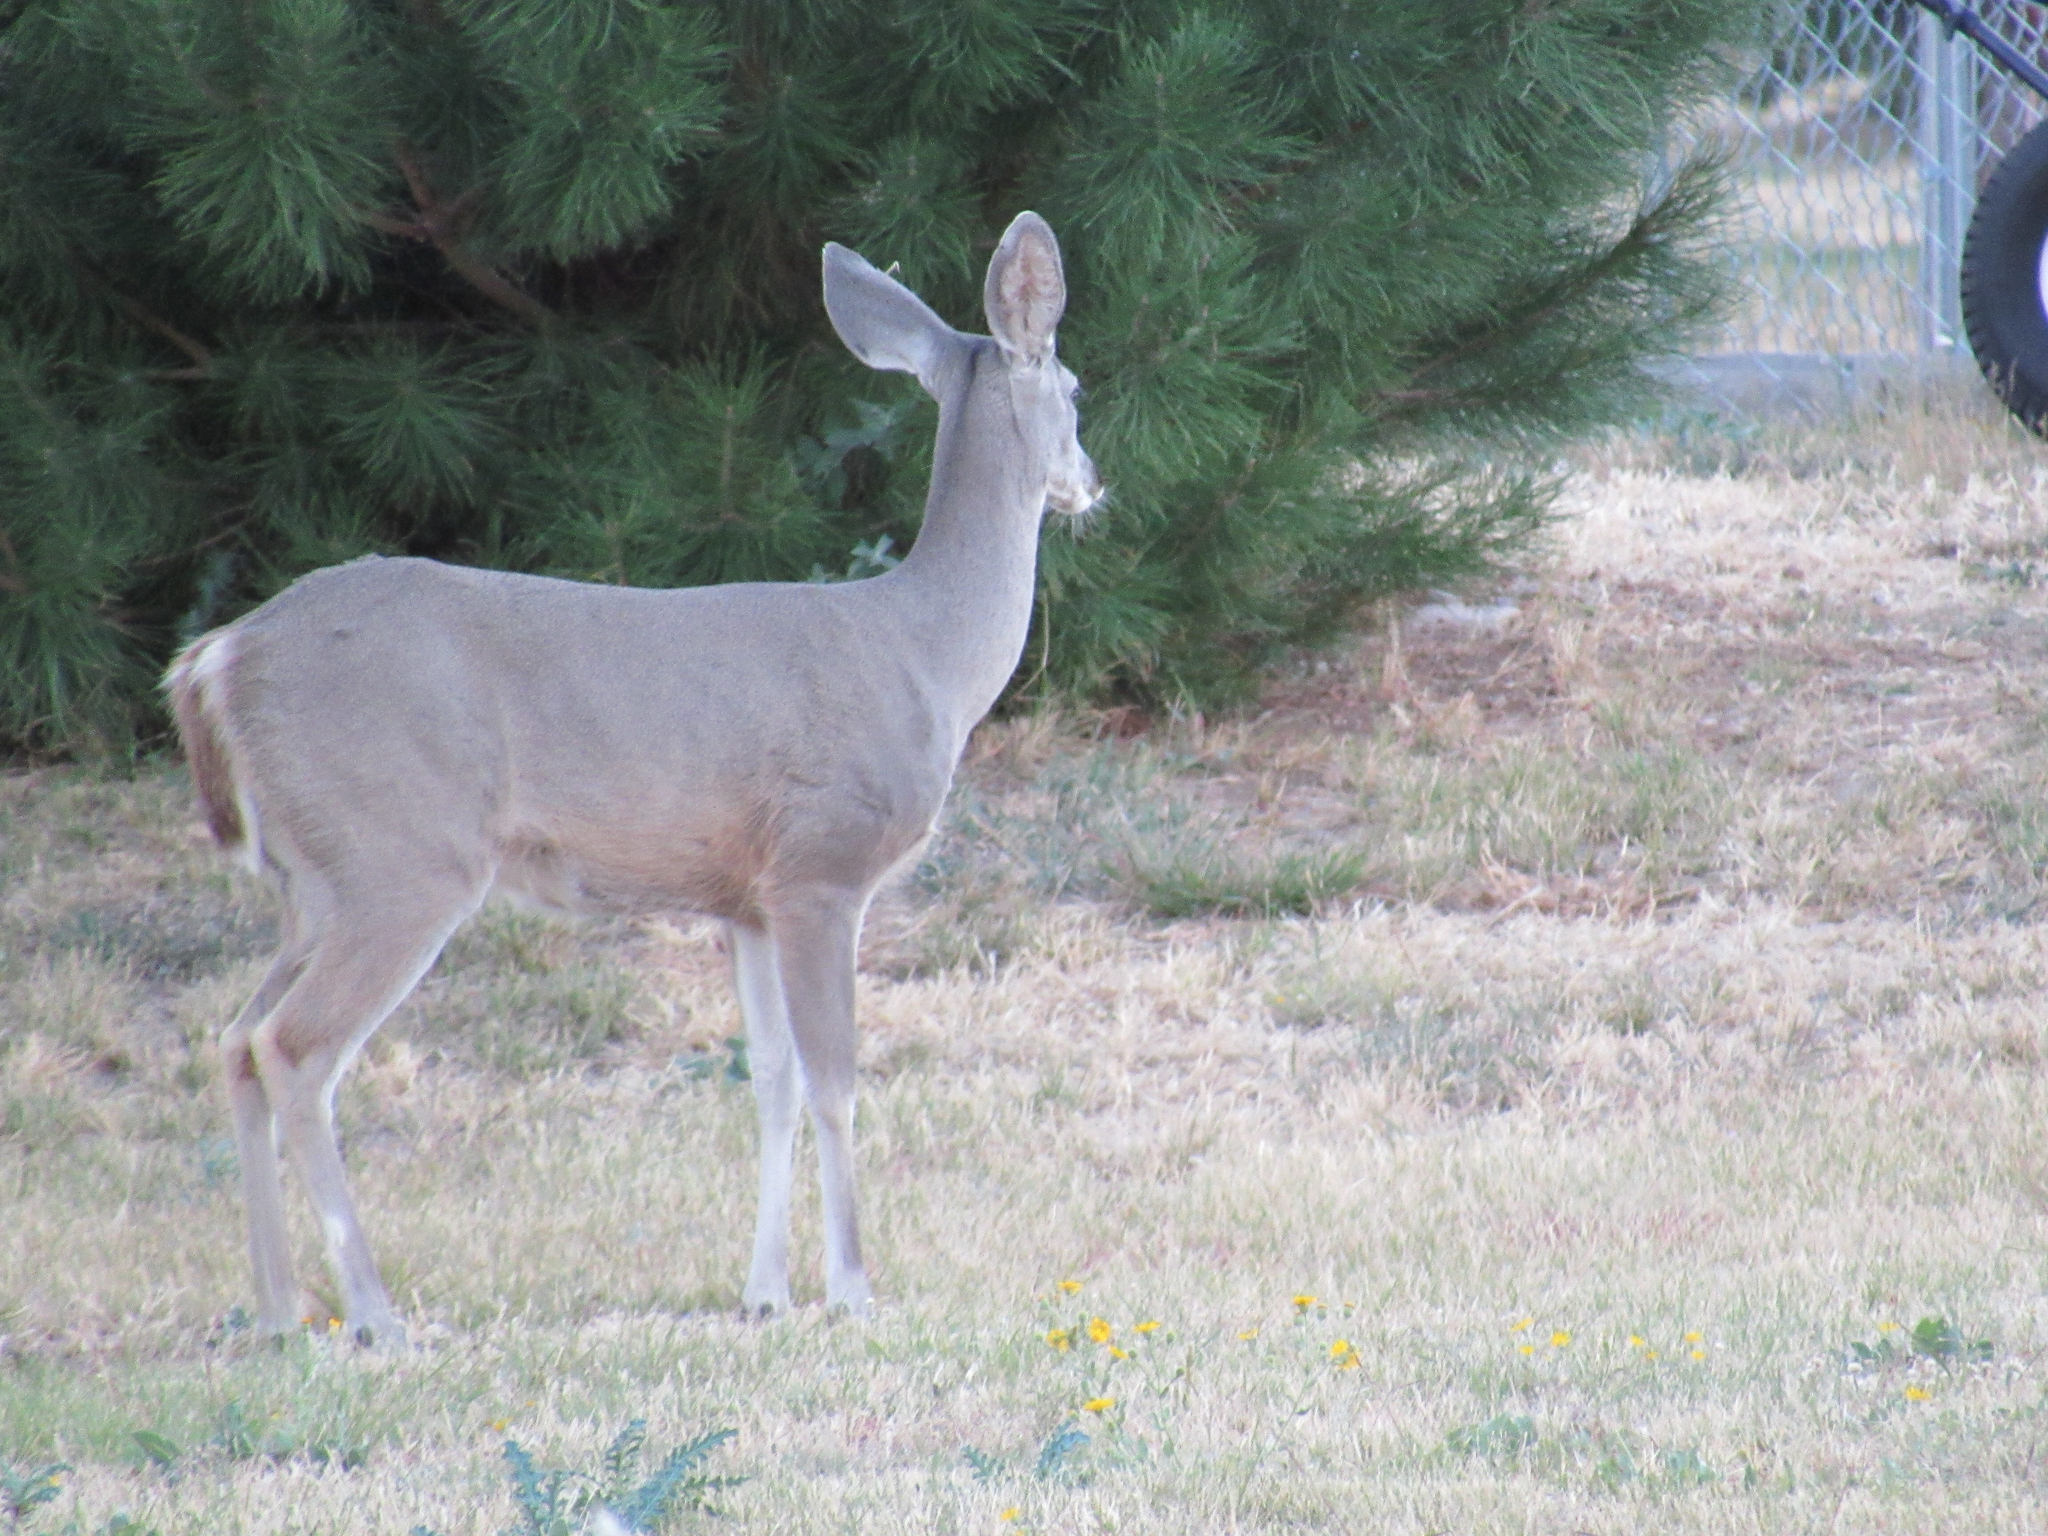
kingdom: Animalia
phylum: Chordata
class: Mammalia
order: Artiodactyla
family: Cervidae
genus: Odocoileus
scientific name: Odocoileus virginianus
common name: White-tailed deer
